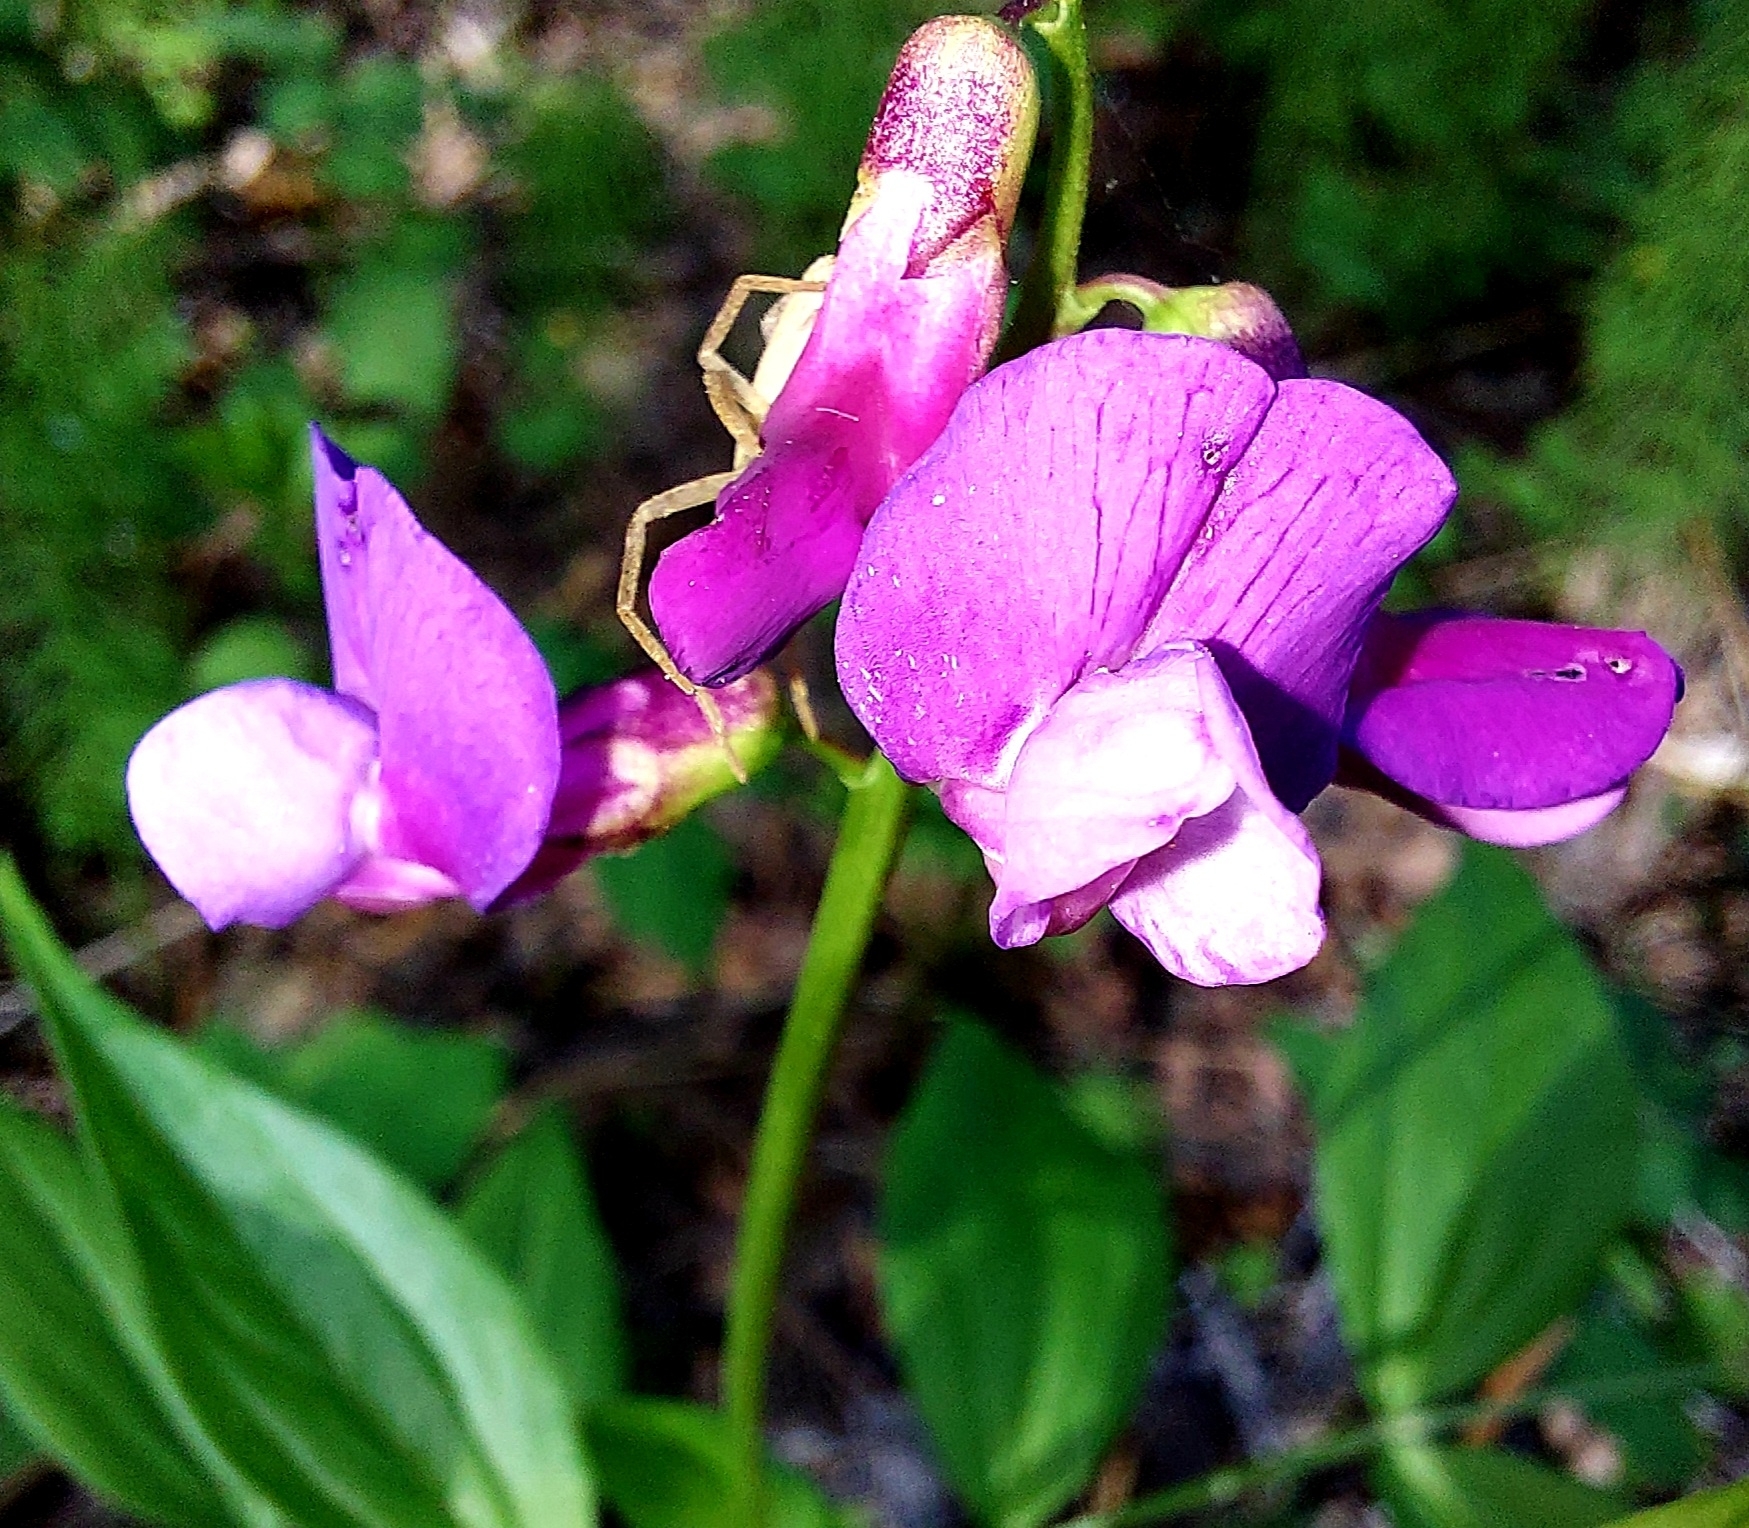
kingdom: Plantae
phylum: Tracheophyta
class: Magnoliopsida
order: Fabales
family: Fabaceae
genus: Lathyrus
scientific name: Lathyrus vernus
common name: Spring pea
